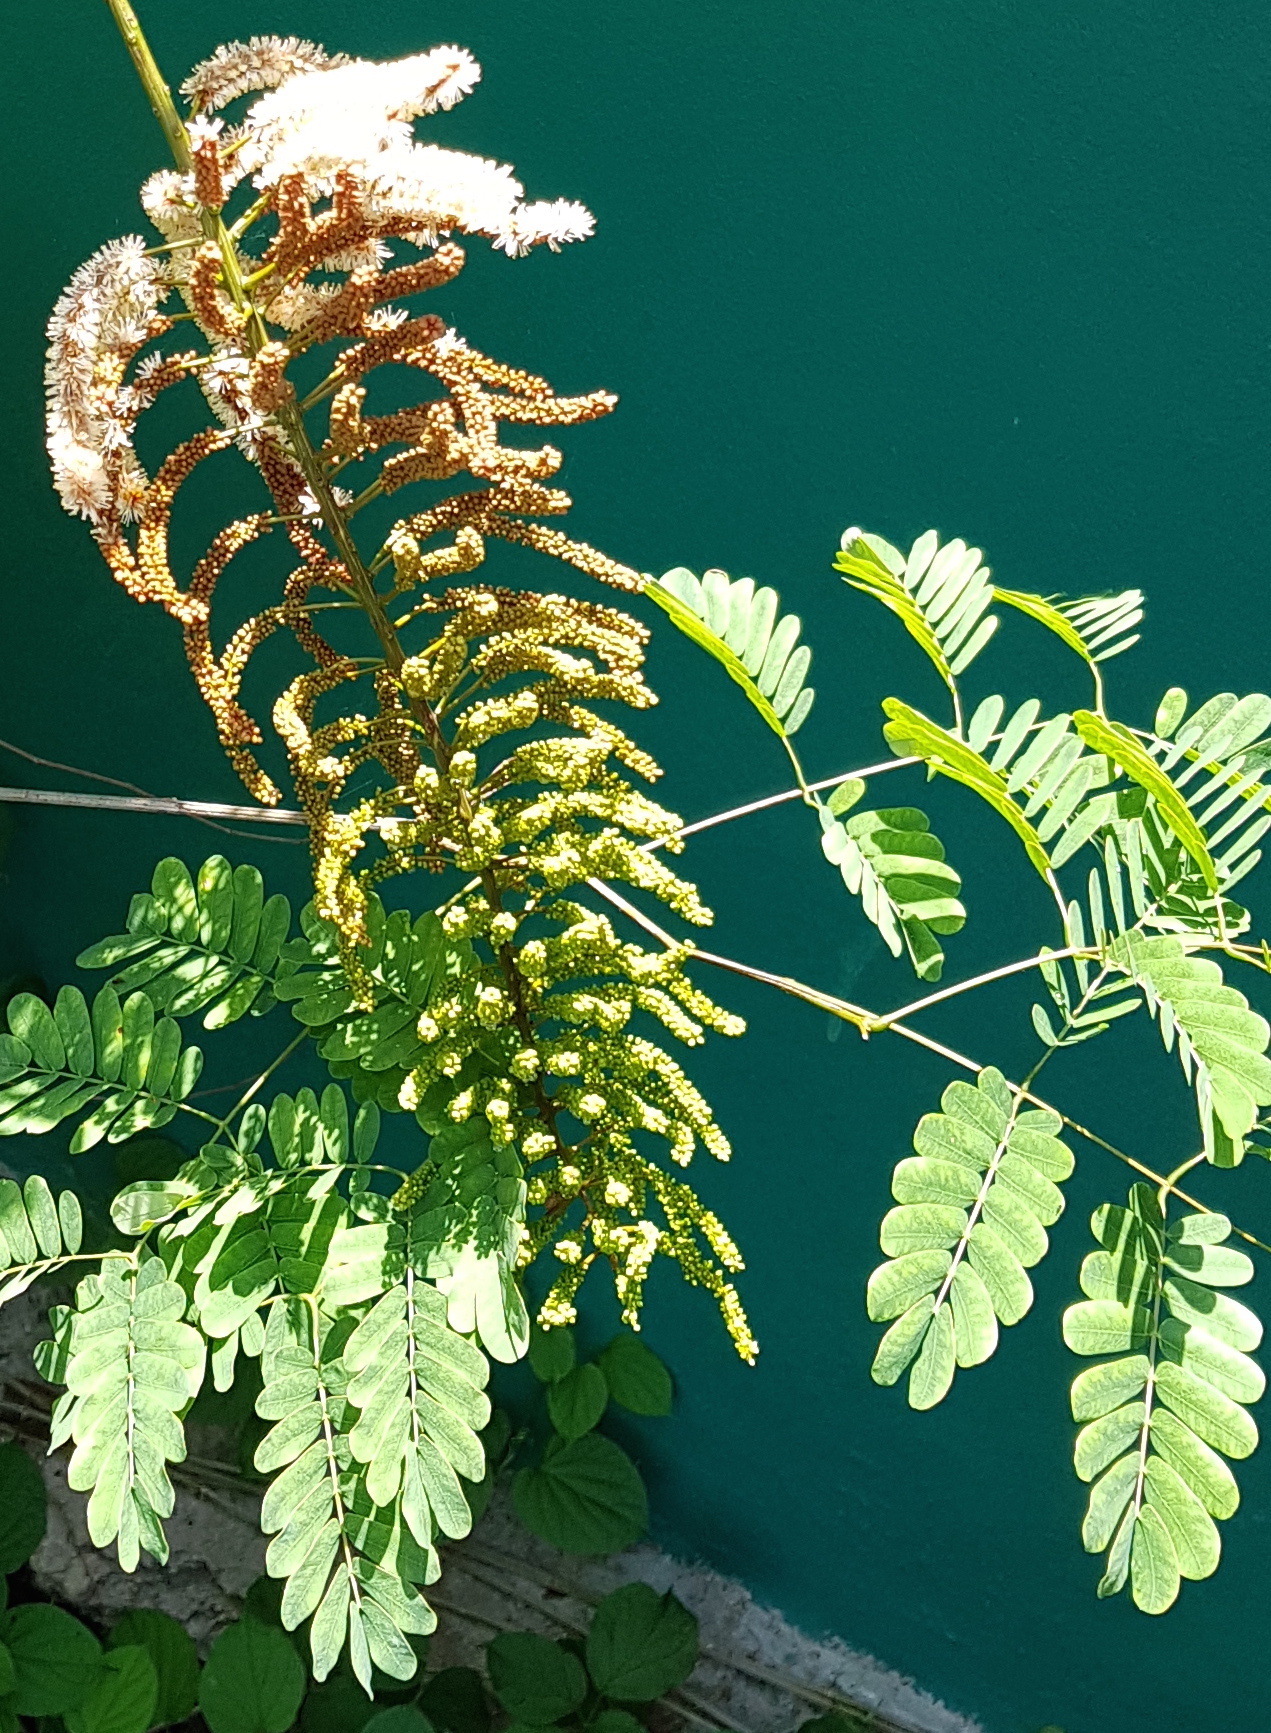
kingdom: Plantae
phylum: Tracheophyta
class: Magnoliopsida
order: Fabales
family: Fabaceae
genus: Entada
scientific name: Entada polystachya
